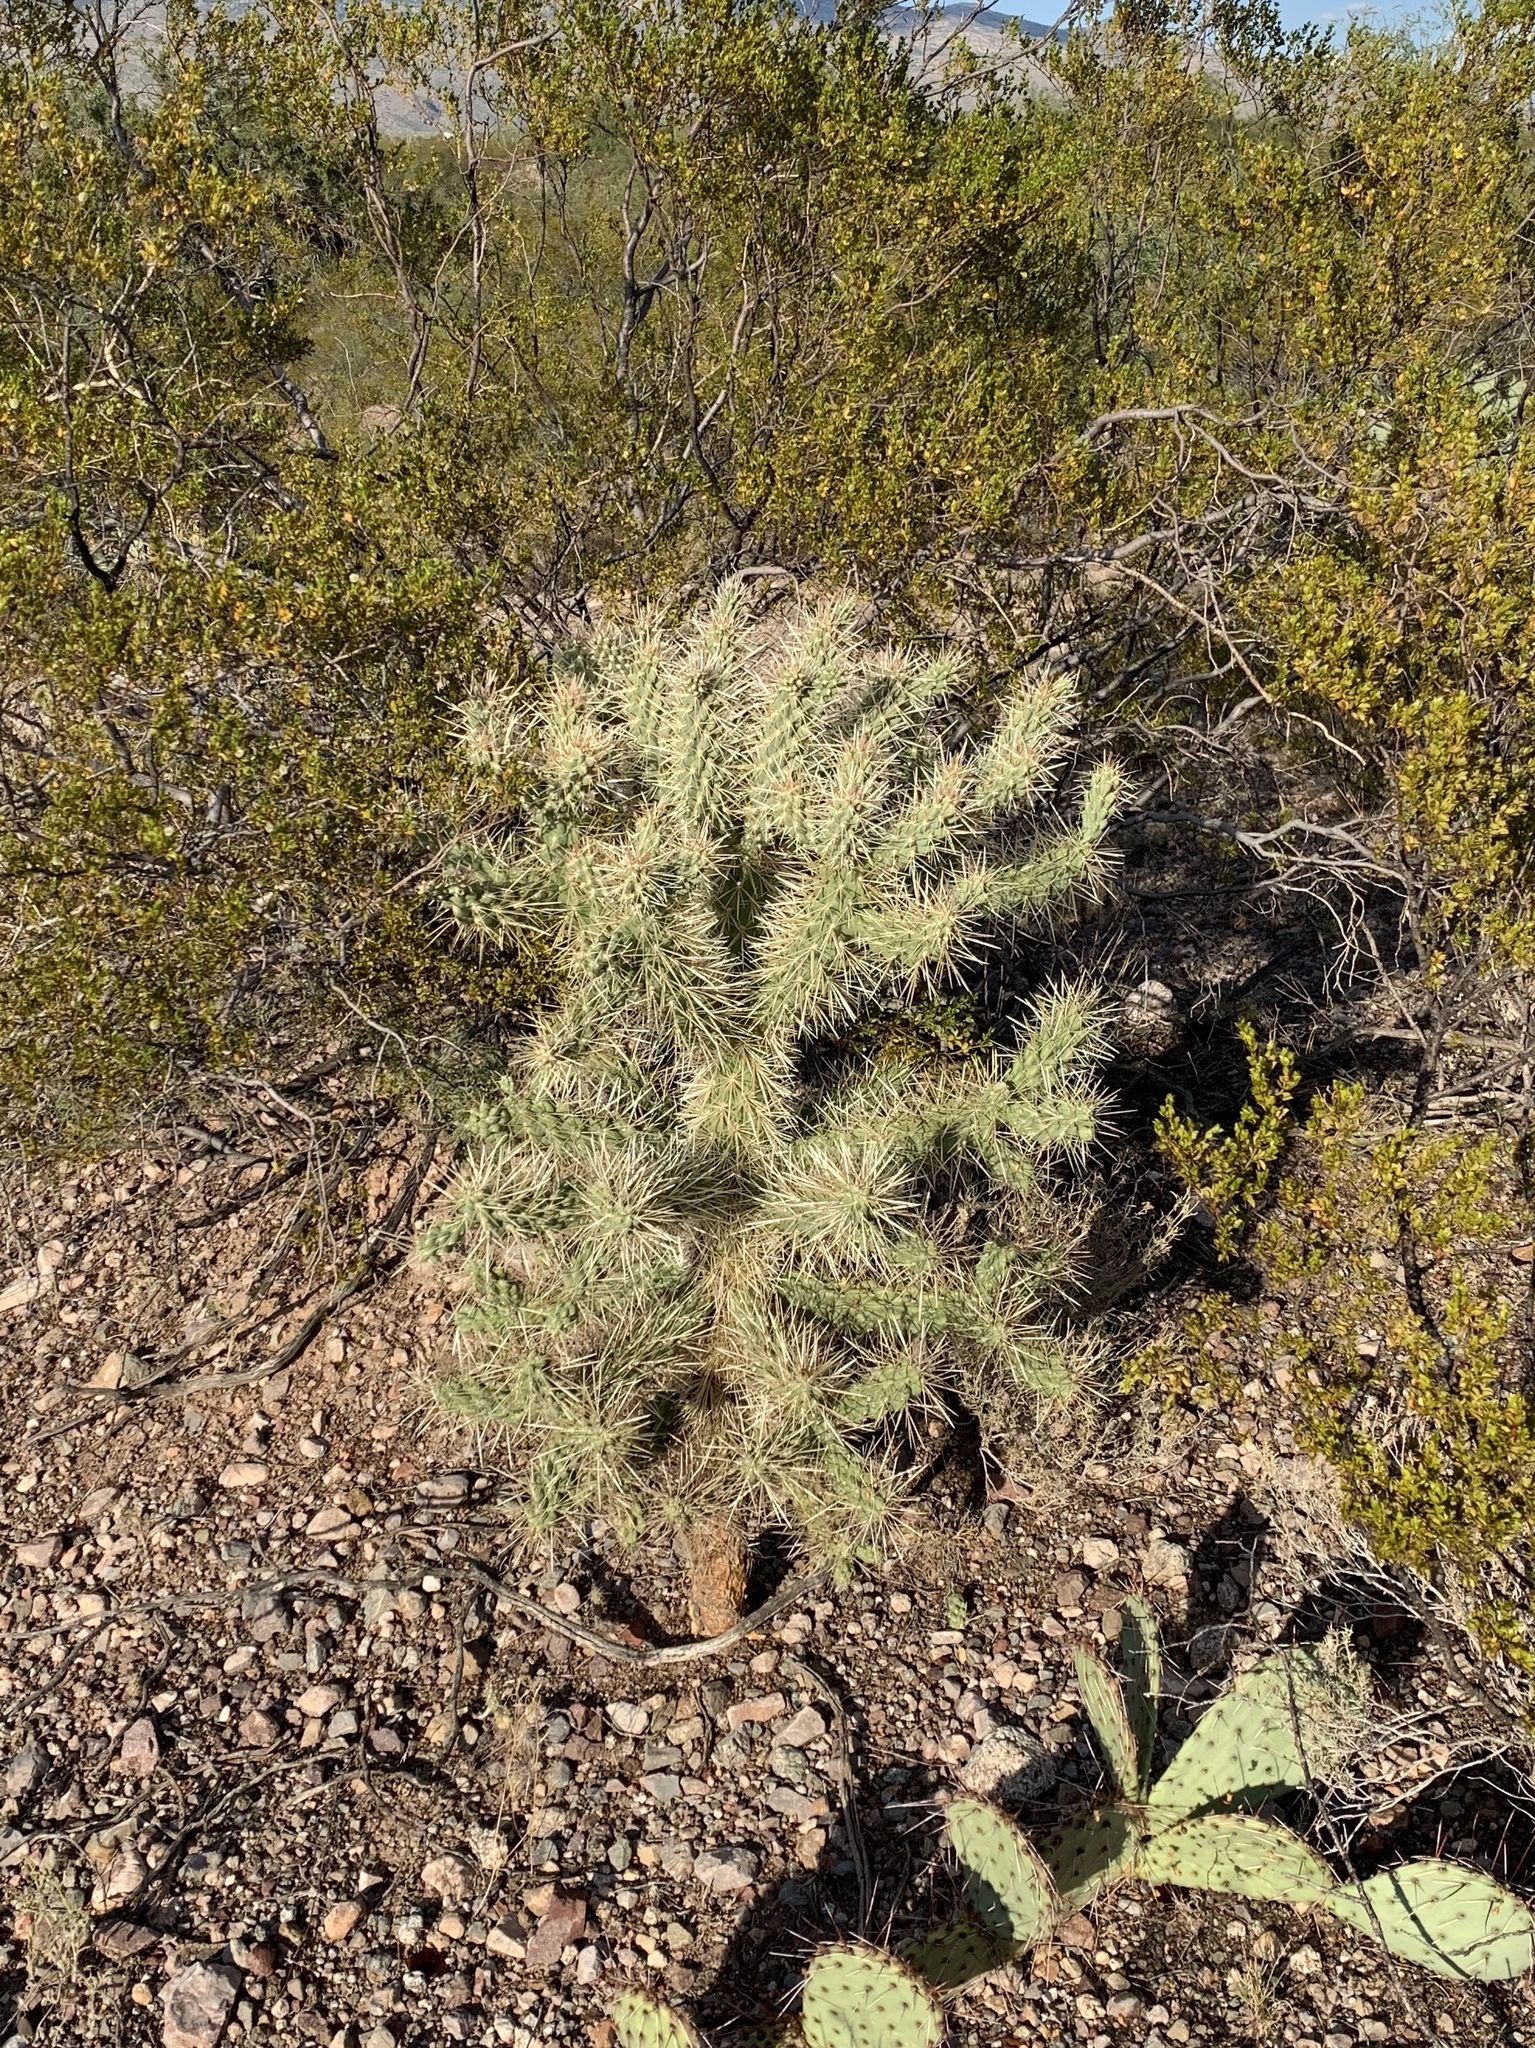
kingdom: Plantae
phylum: Tracheophyta
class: Magnoliopsida
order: Caryophyllales
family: Cactaceae
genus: Cylindropuntia
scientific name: Cylindropuntia fulgida
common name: Jumping cholla
